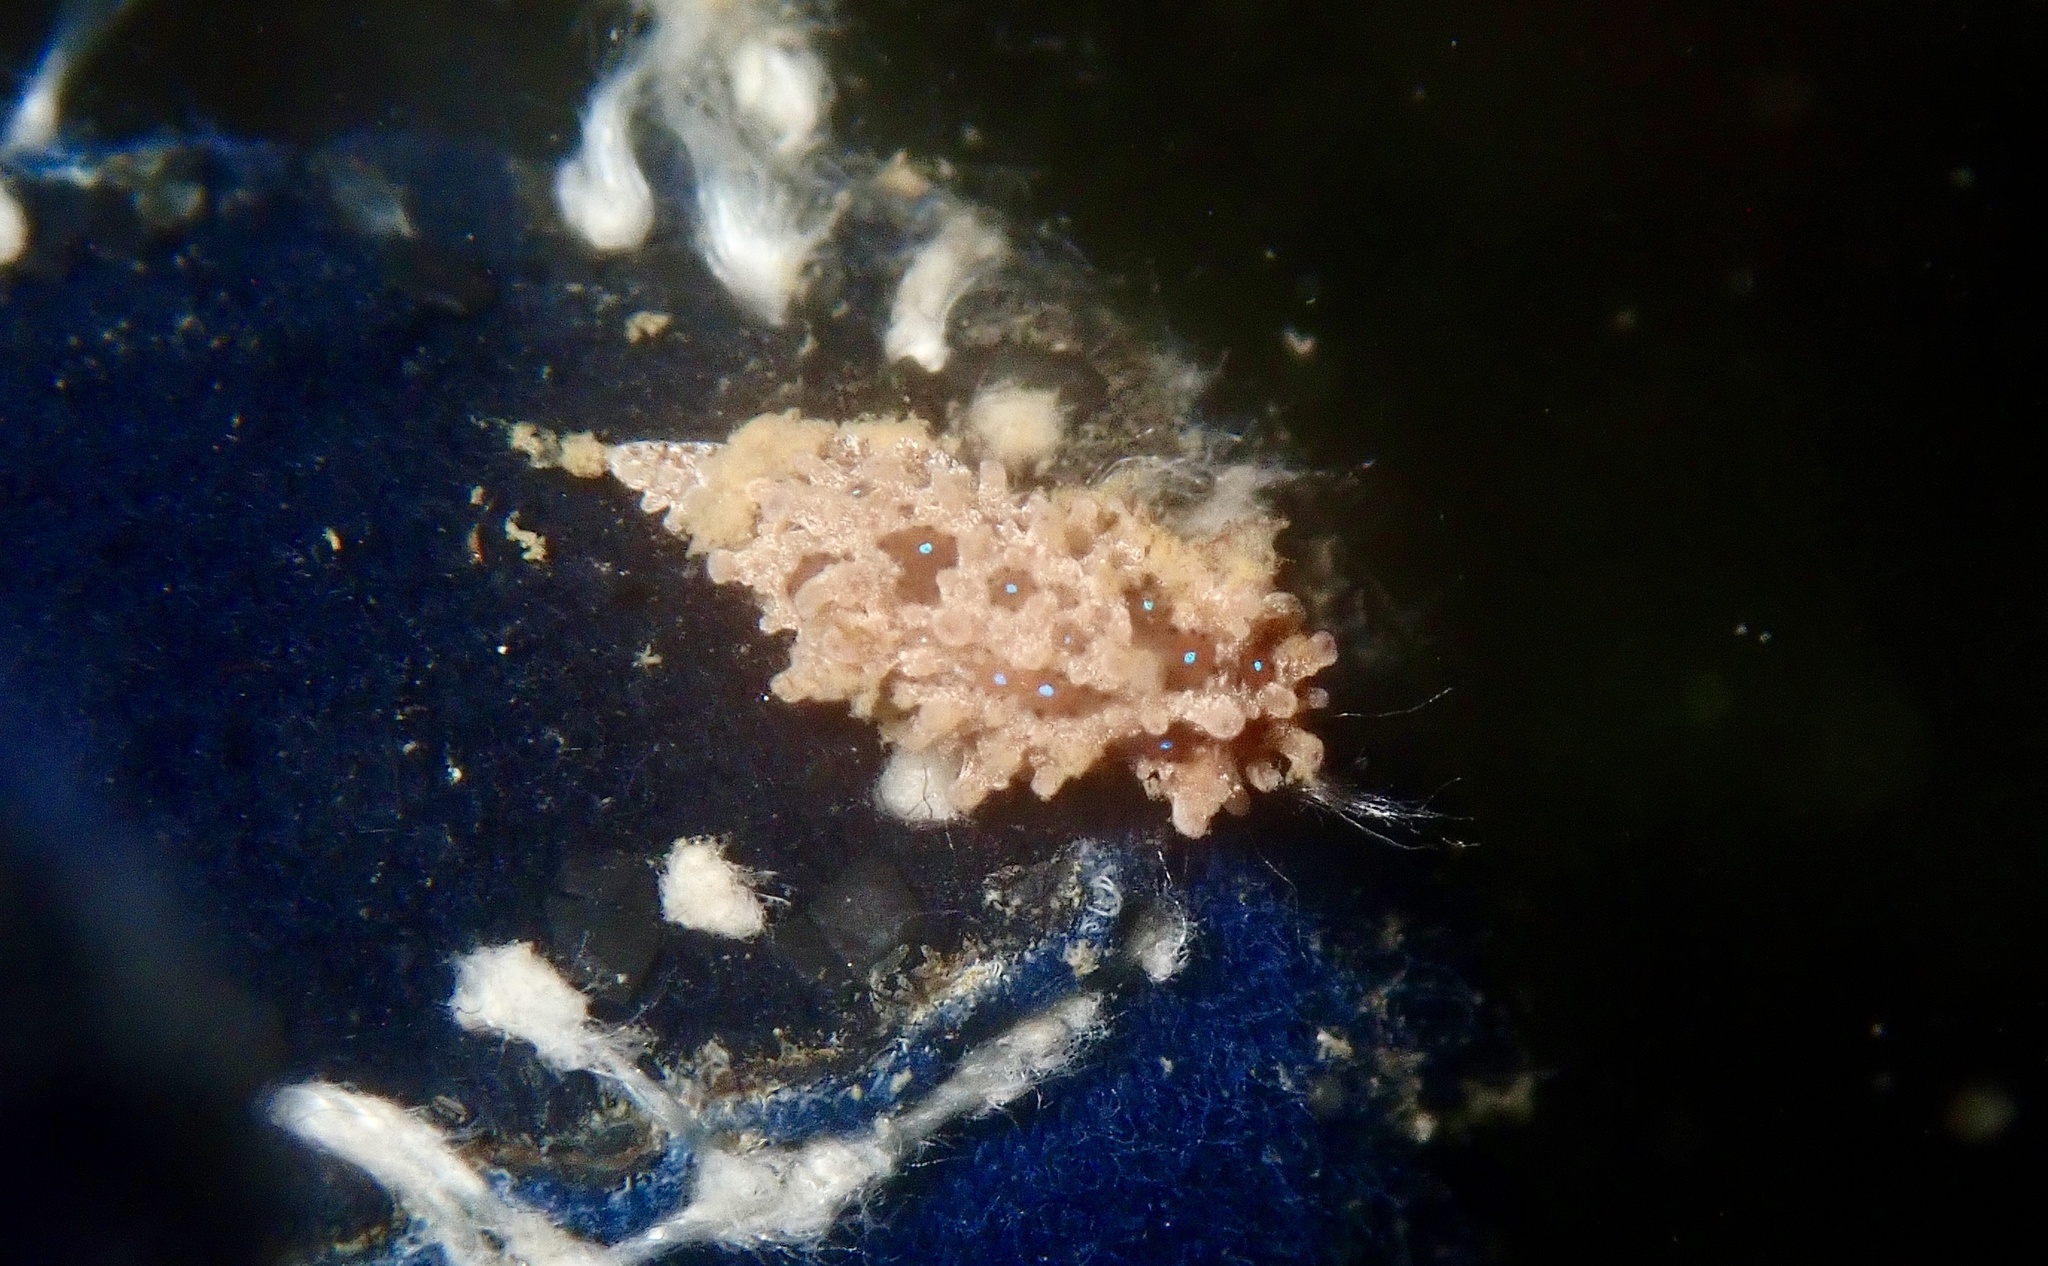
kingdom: Animalia
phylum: Mollusca
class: Gastropoda
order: Nudibranchia
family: Aegiridae
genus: Aegires
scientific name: Aegires punctilucens
